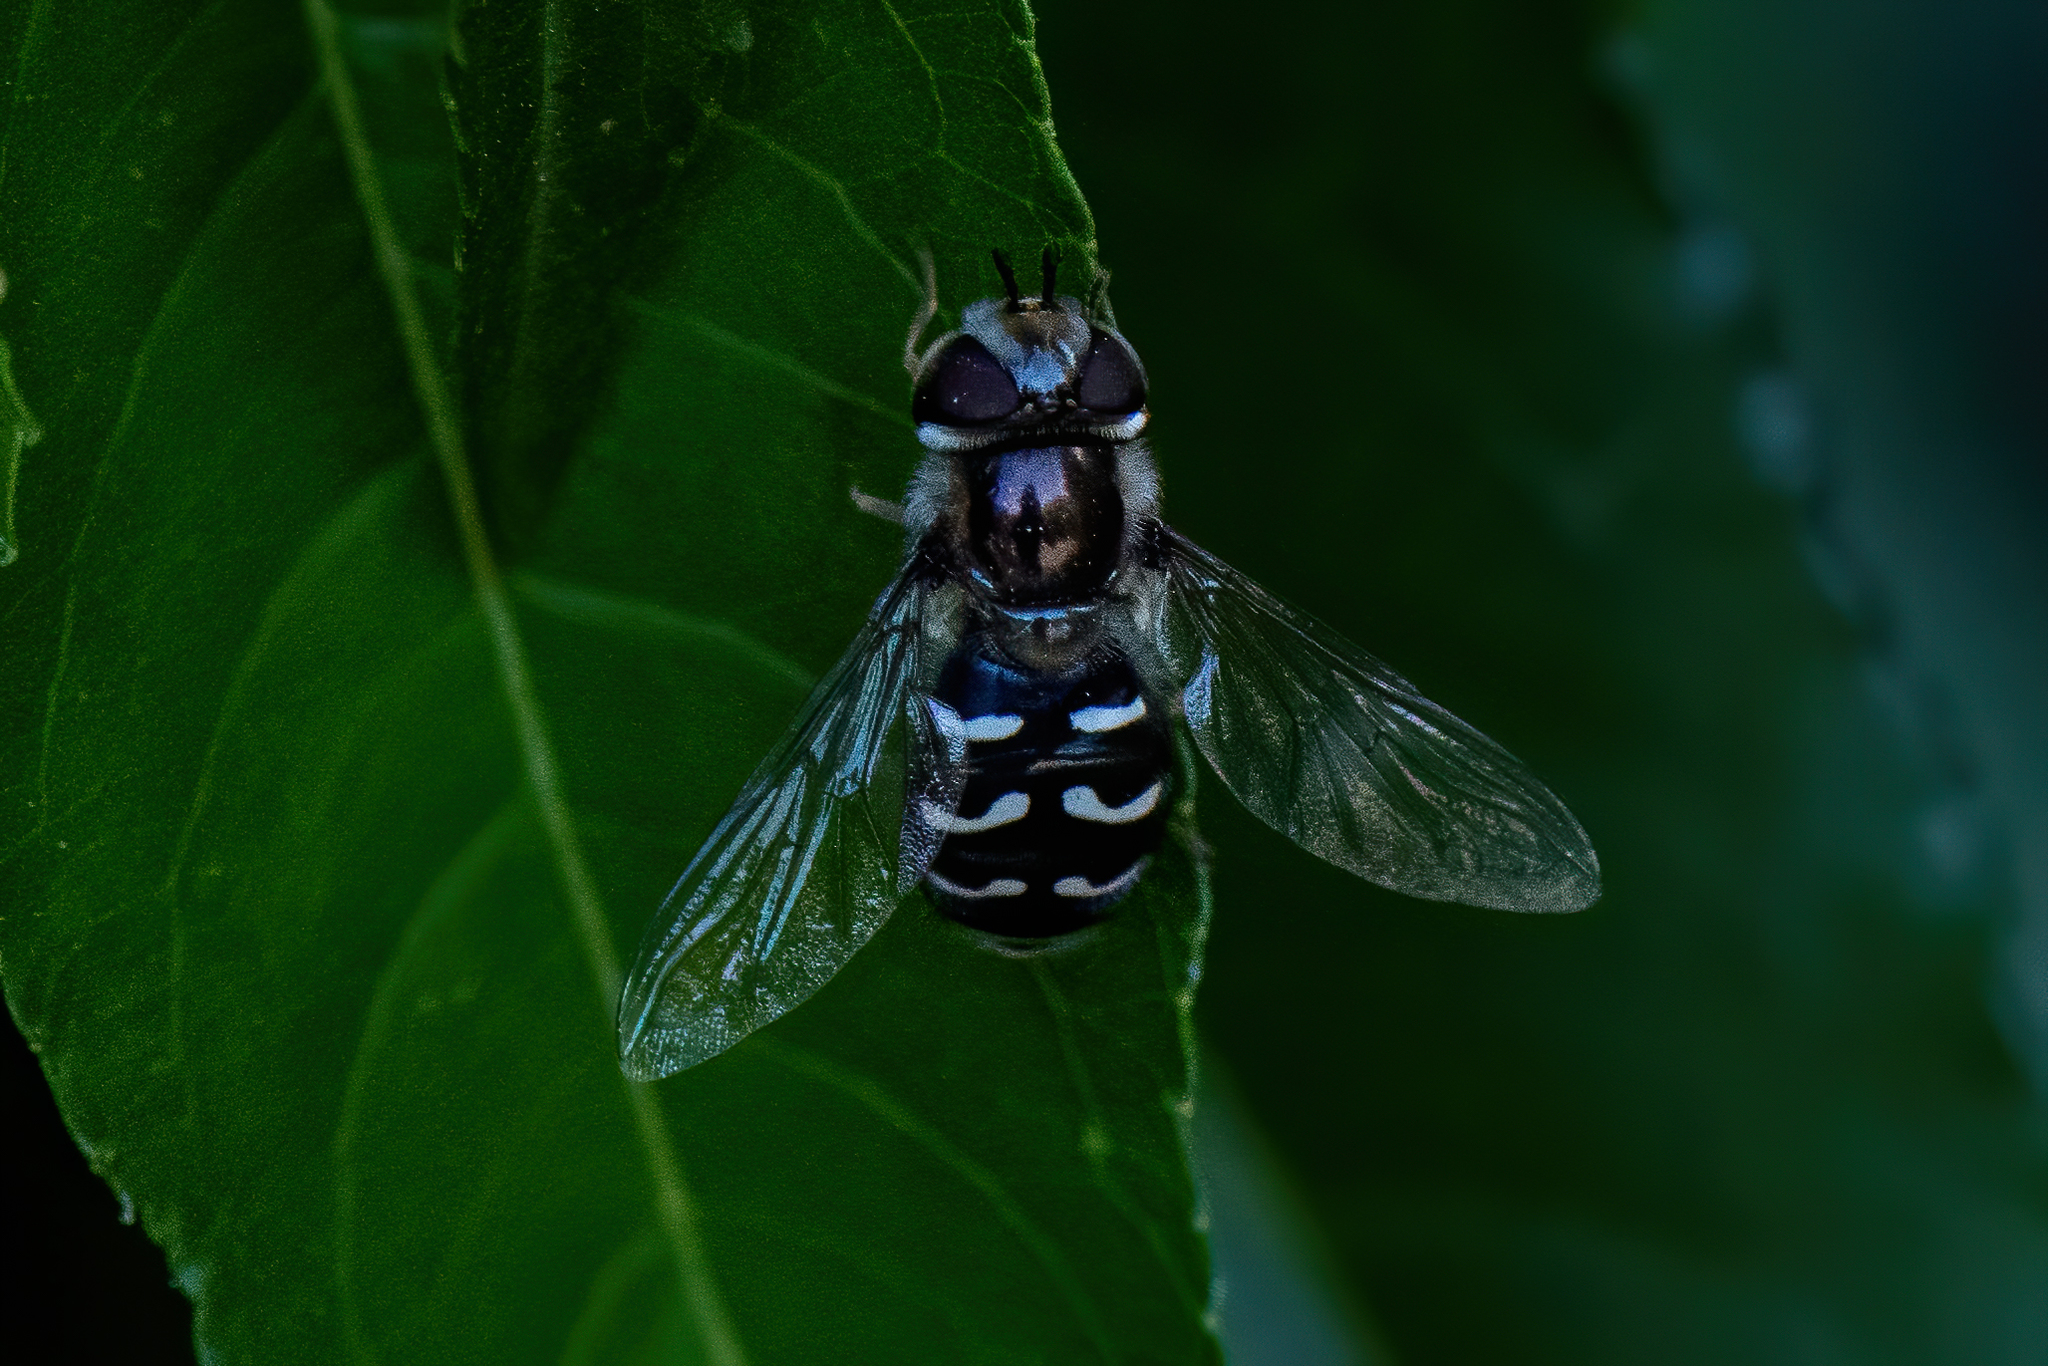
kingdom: Animalia
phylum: Arthropoda
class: Insecta
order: Diptera
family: Syrphidae
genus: Scaeva
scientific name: Scaeva affinis
